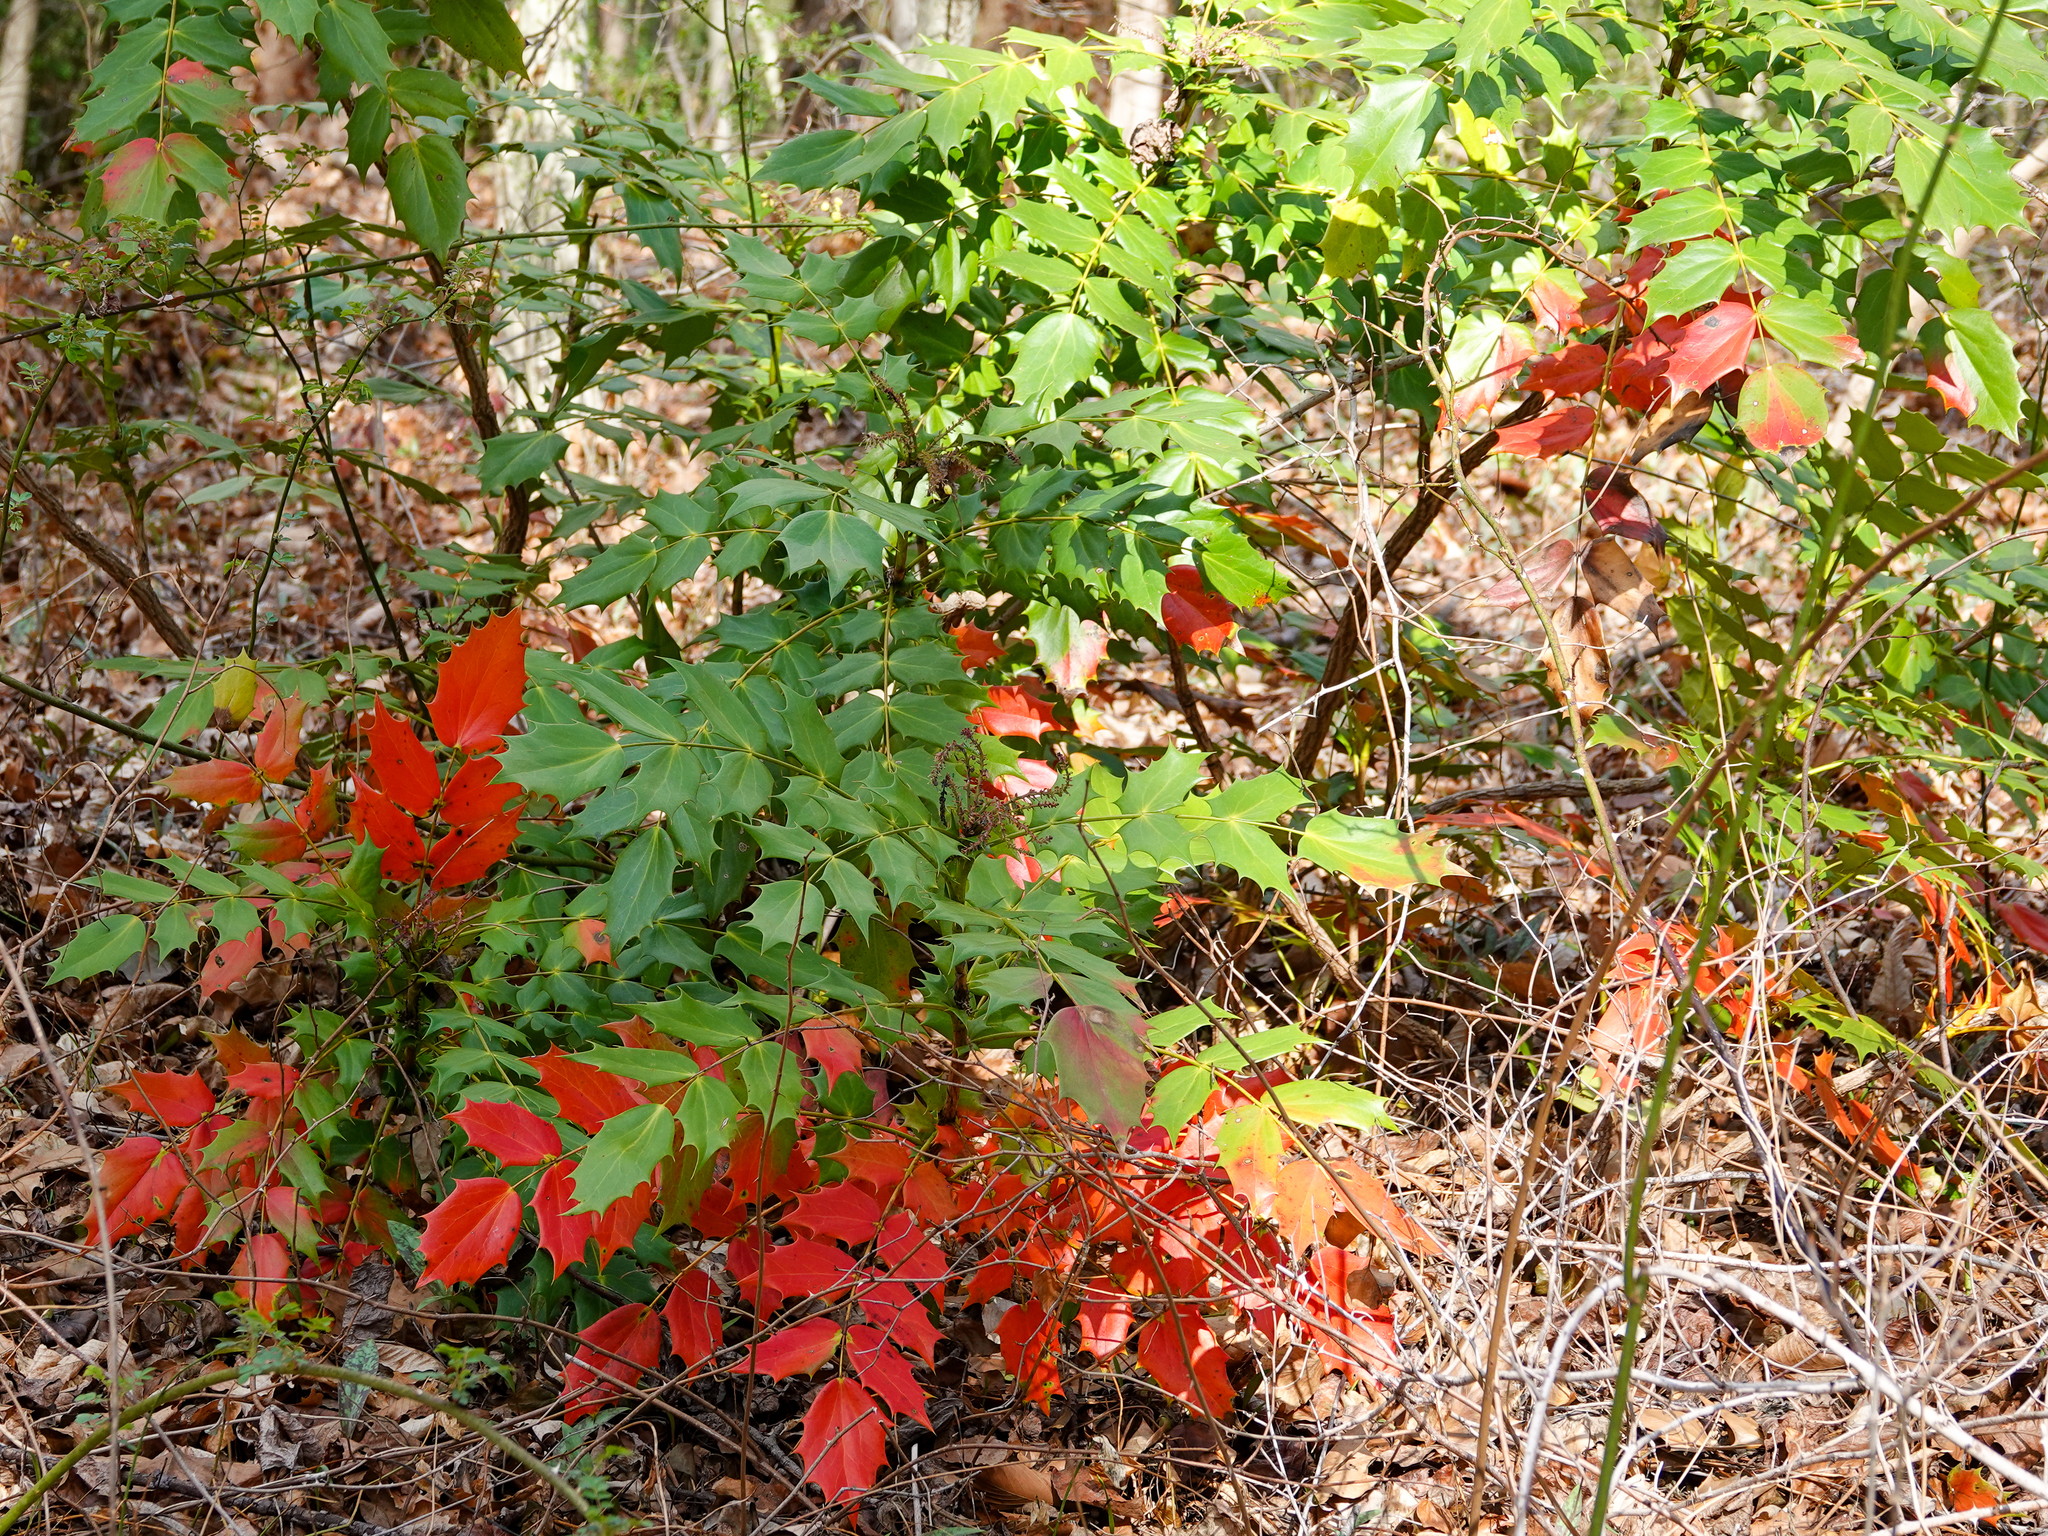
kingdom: Plantae
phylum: Tracheophyta
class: Magnoliopsida
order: Ranunculales
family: Berberidaceae
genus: Mahonia
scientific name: Mahonia bealei
